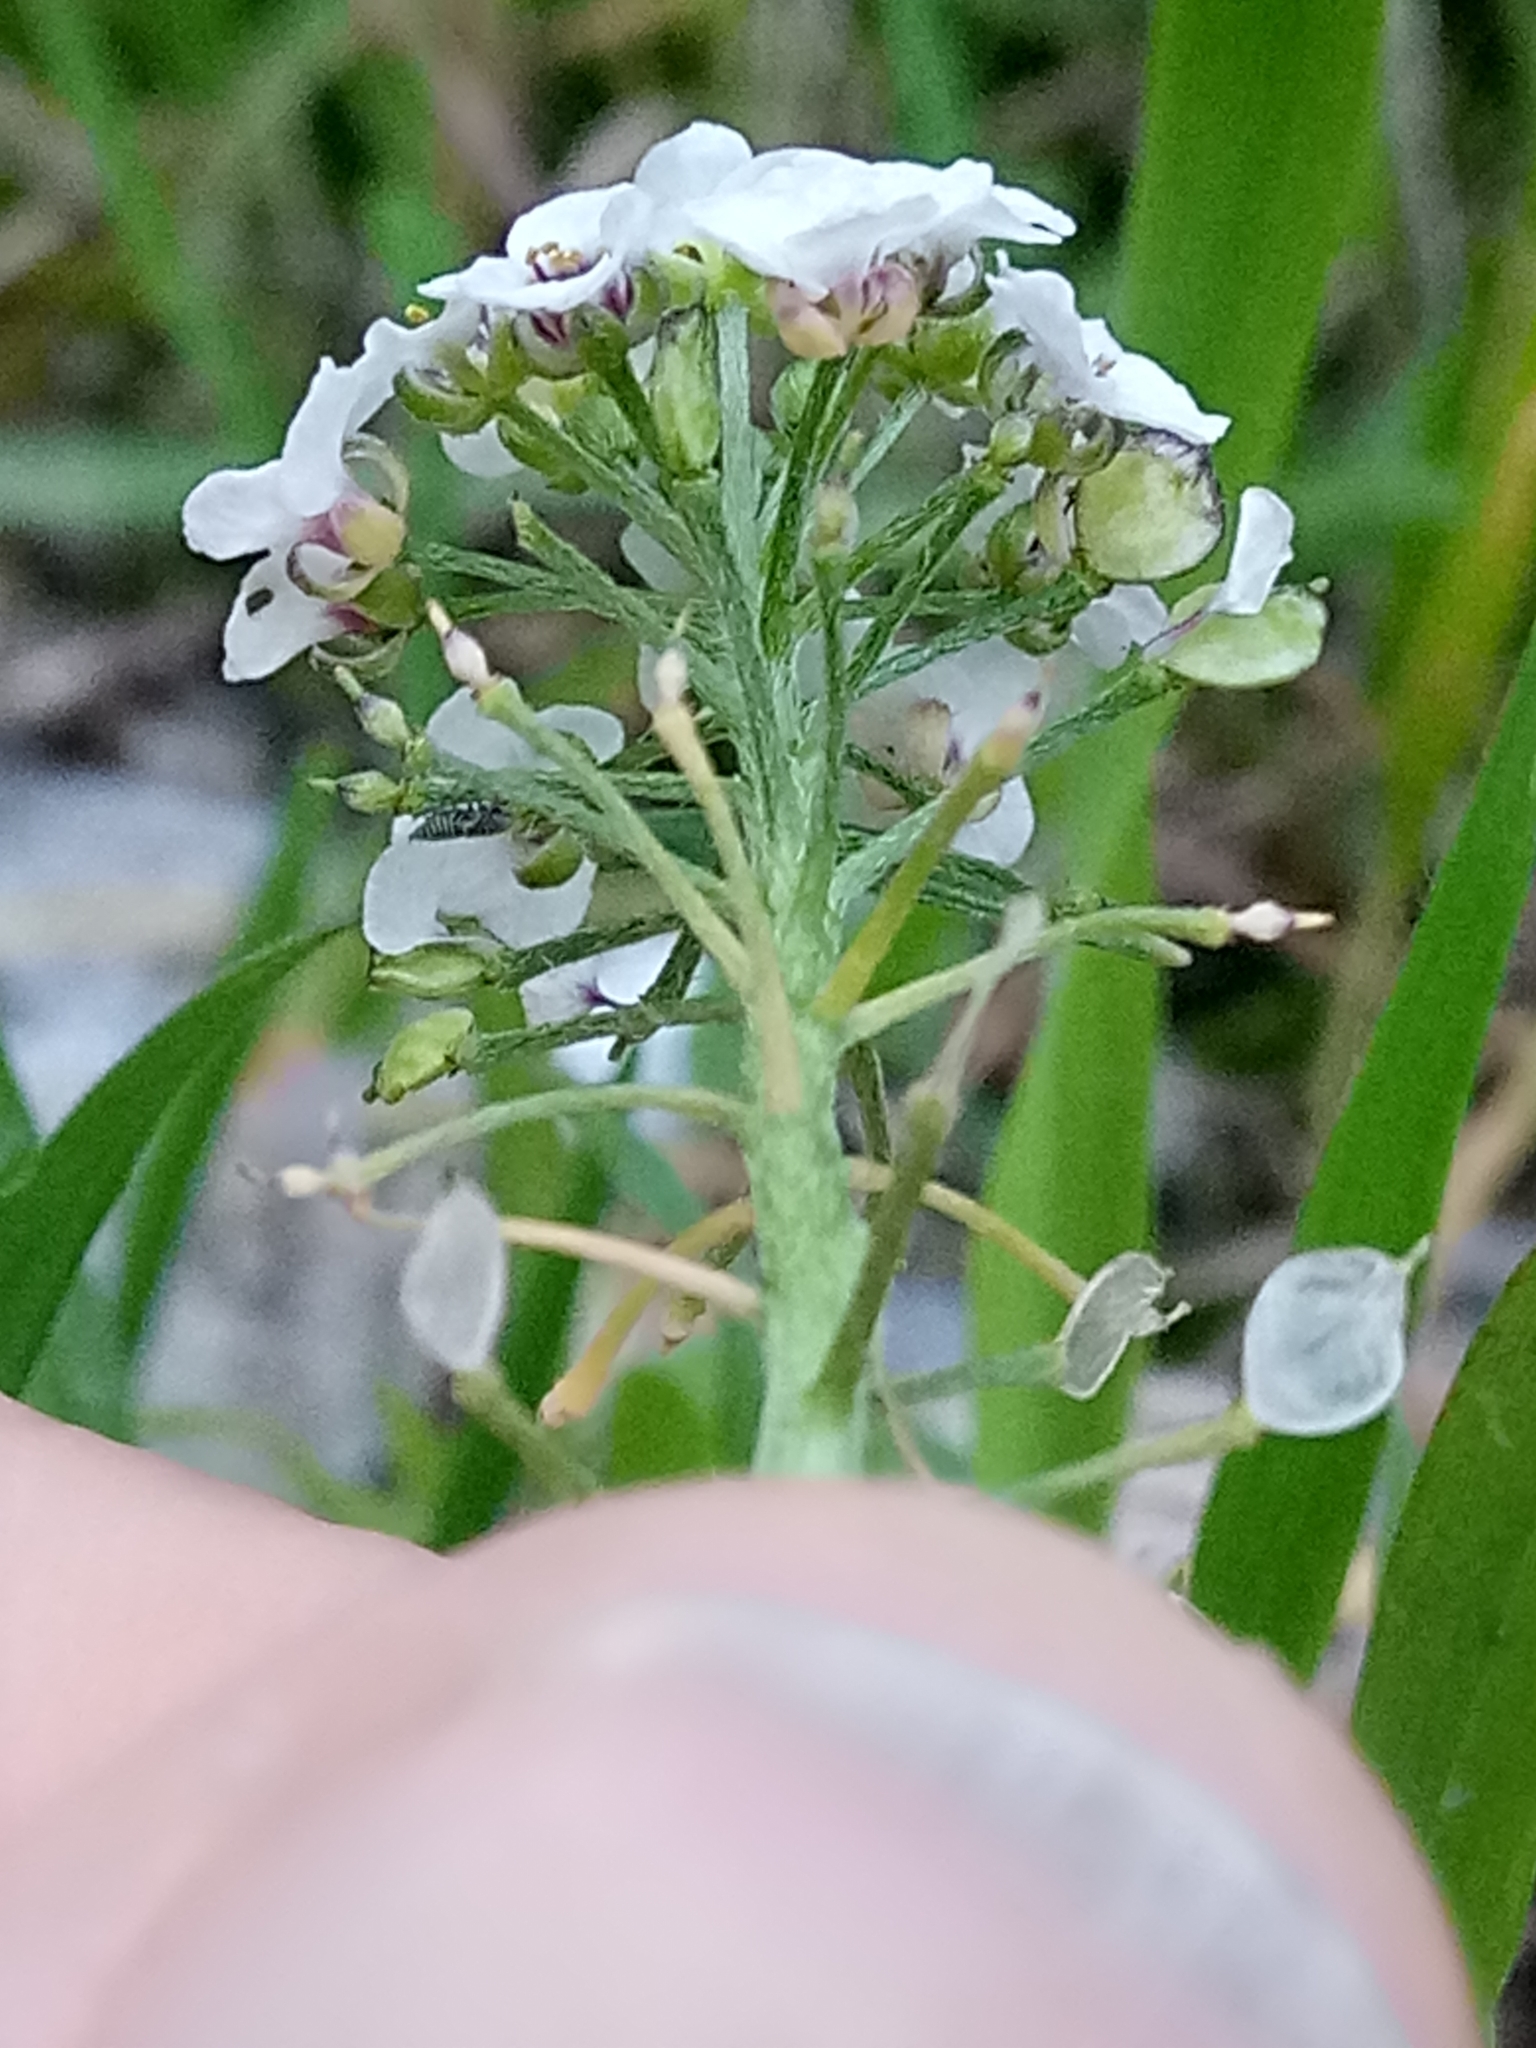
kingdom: Plantae
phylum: Tracheophyta
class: Magnoliopsida
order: Brassicales
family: Brassicaceae
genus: Lobularia
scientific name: Lobularia maritima
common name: Sweet alison
